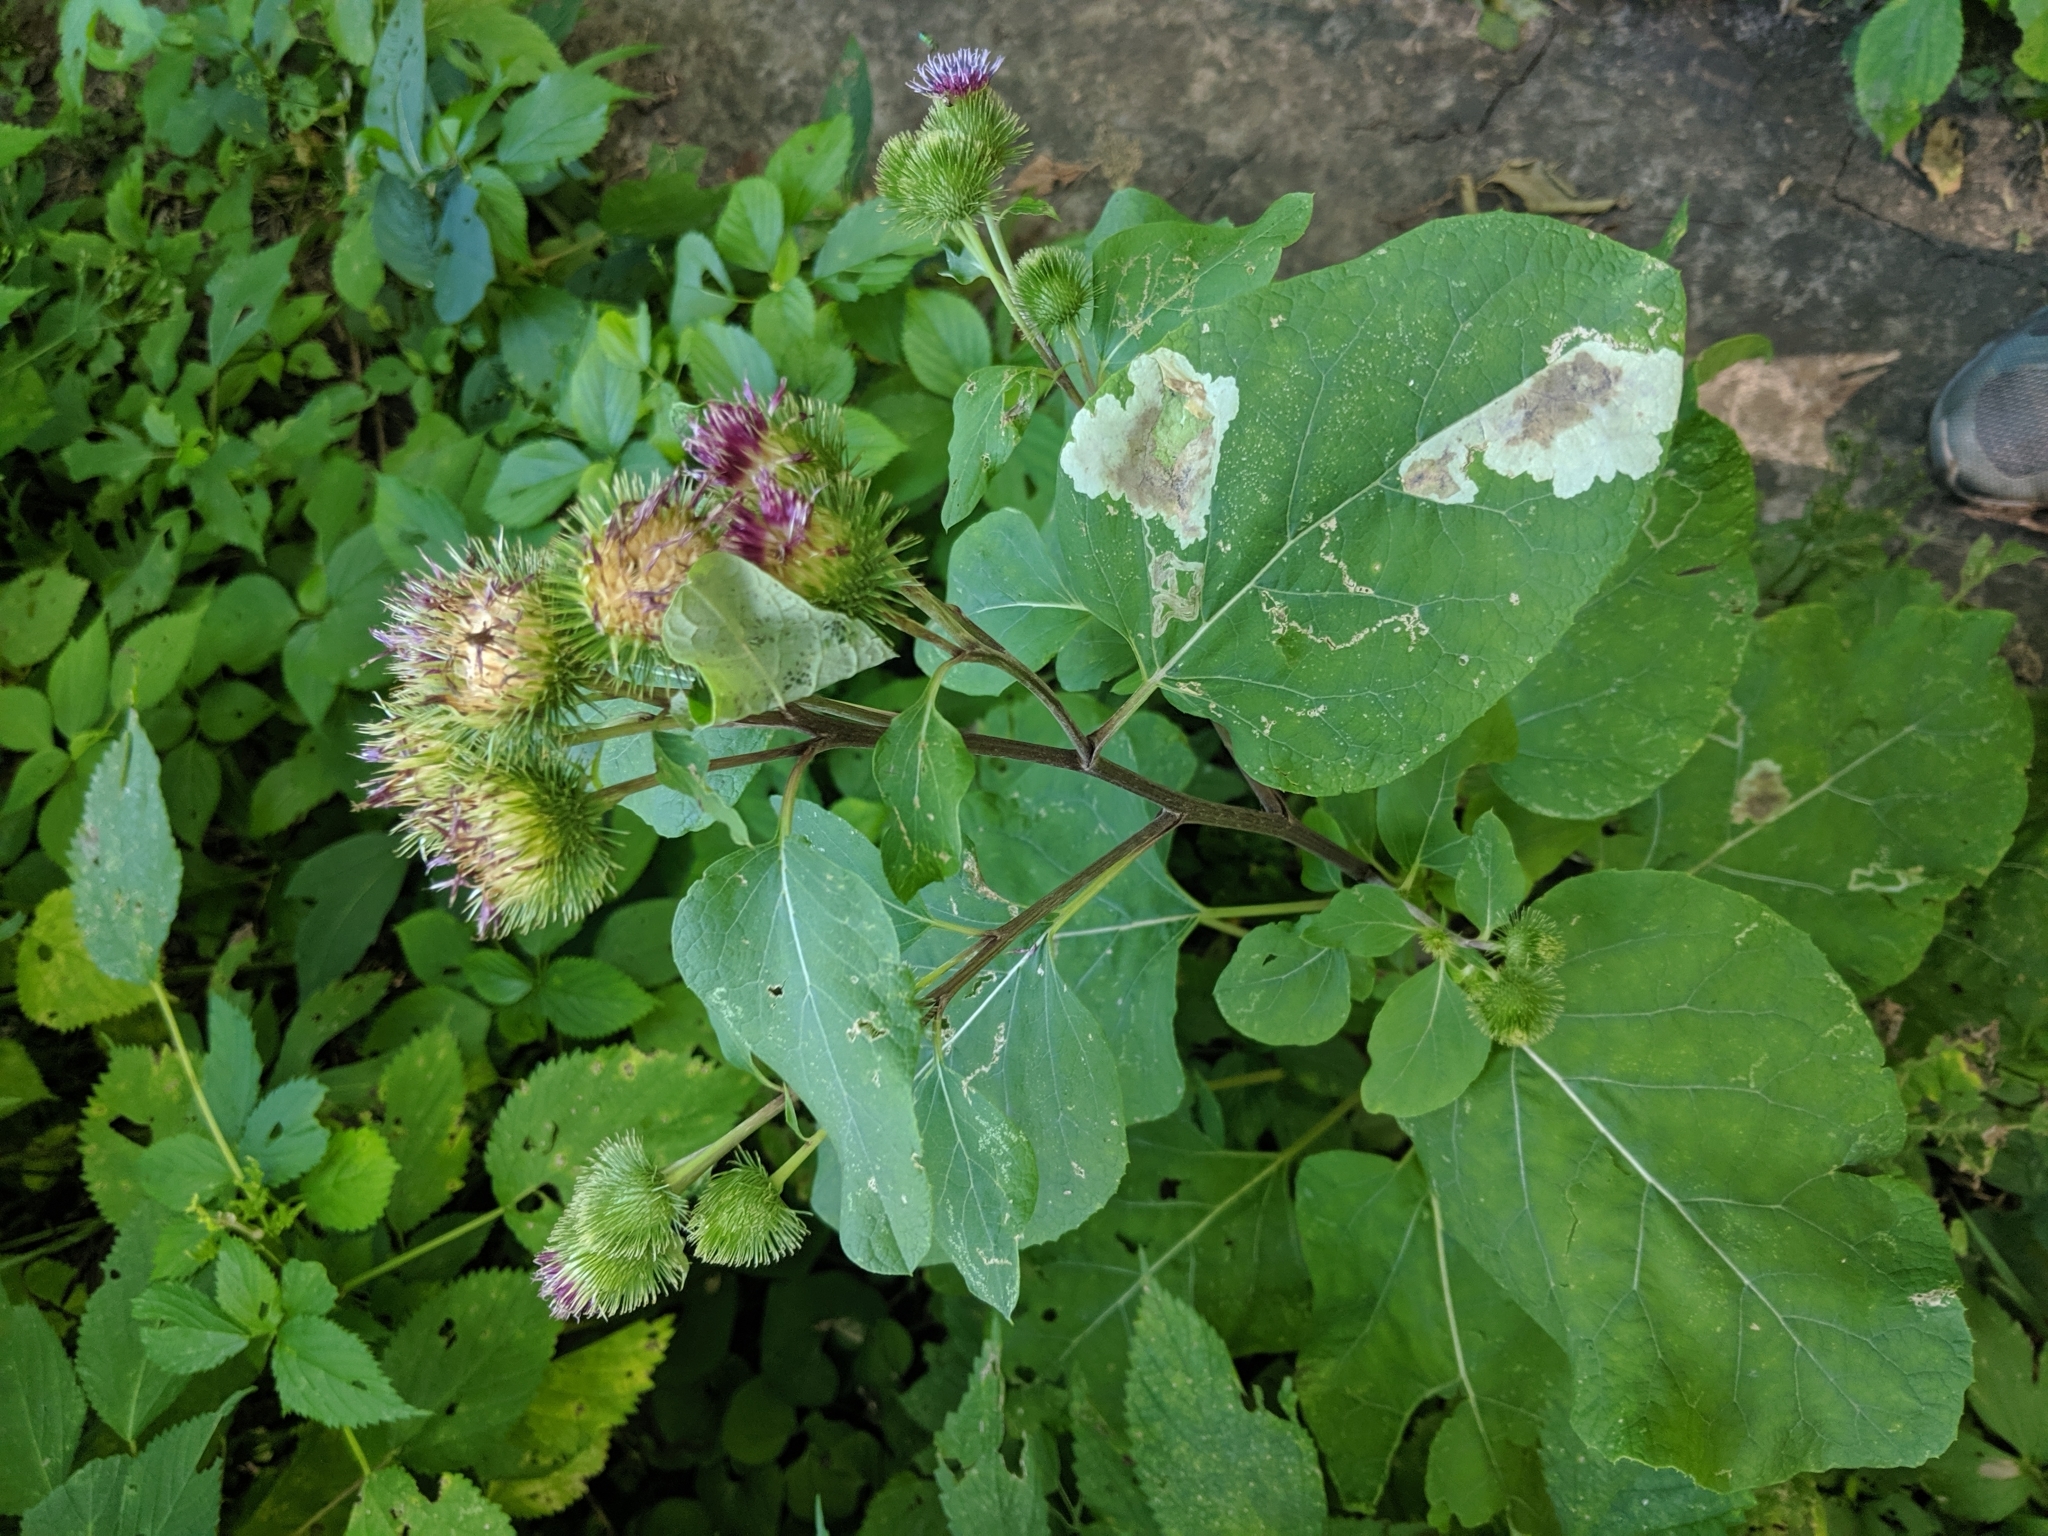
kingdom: Plantae
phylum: Tracheophyta
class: Magnoliopsida
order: Asterales
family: Asteraceae
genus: Arctium
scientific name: Arctium minus
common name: Lesser burdock
